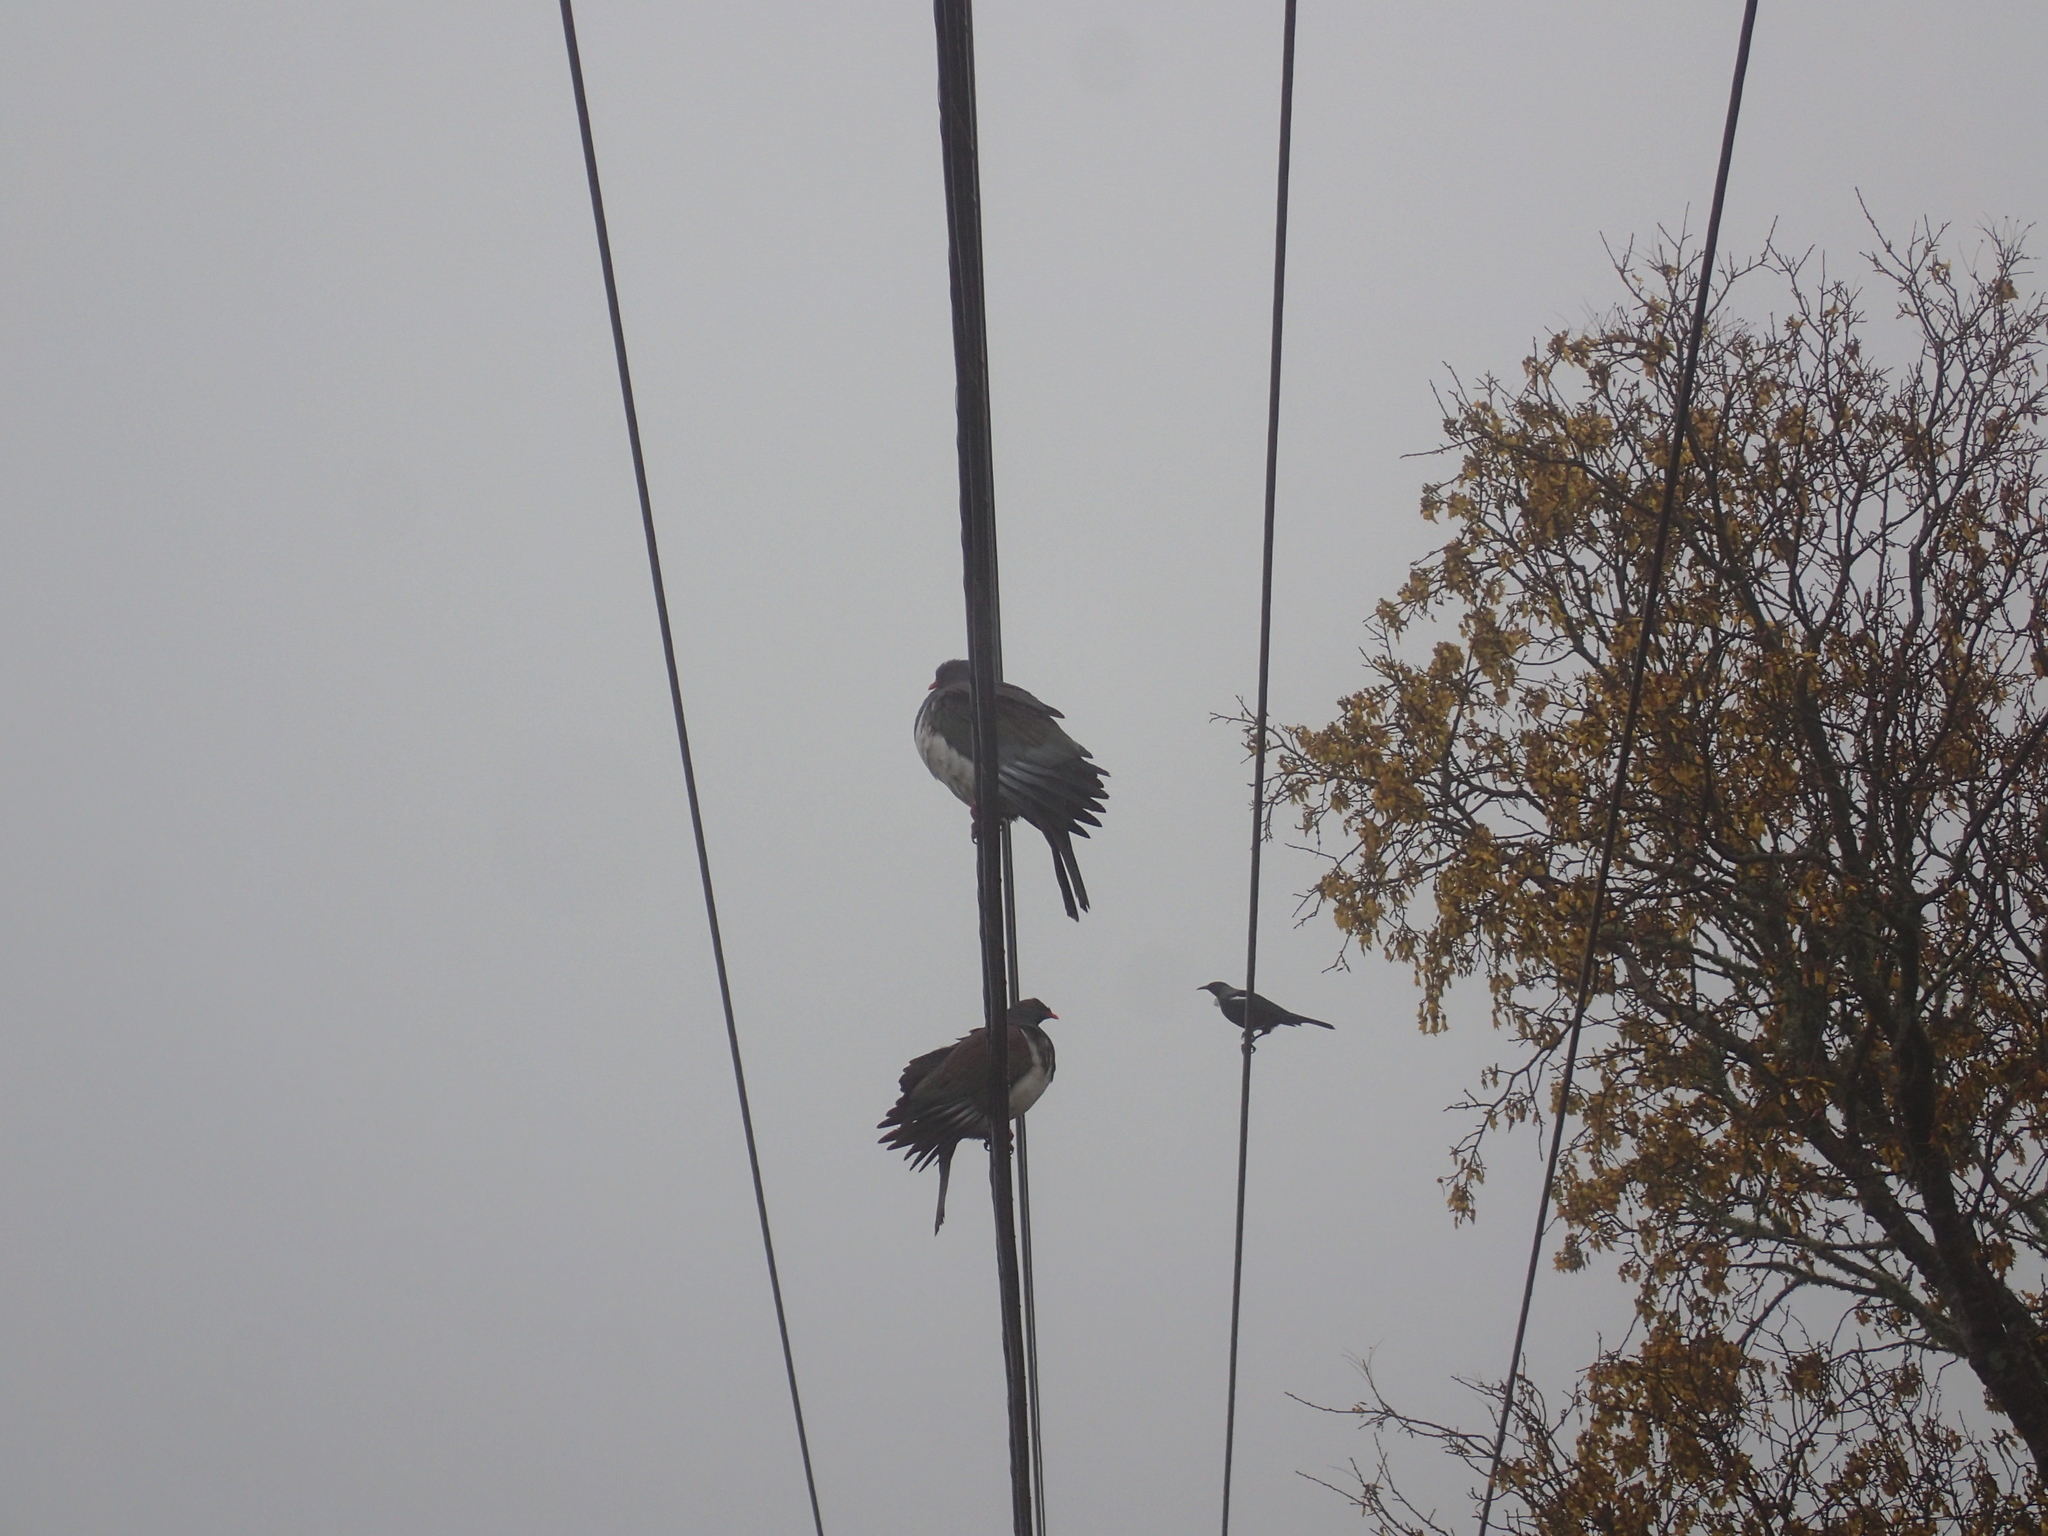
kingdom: Animalia
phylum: Chordata
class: Aves
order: Columbiformes
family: Columbidae
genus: Hemiphaga
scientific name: Hemiphaga novaeseelandiae
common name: New zealand pigeon
